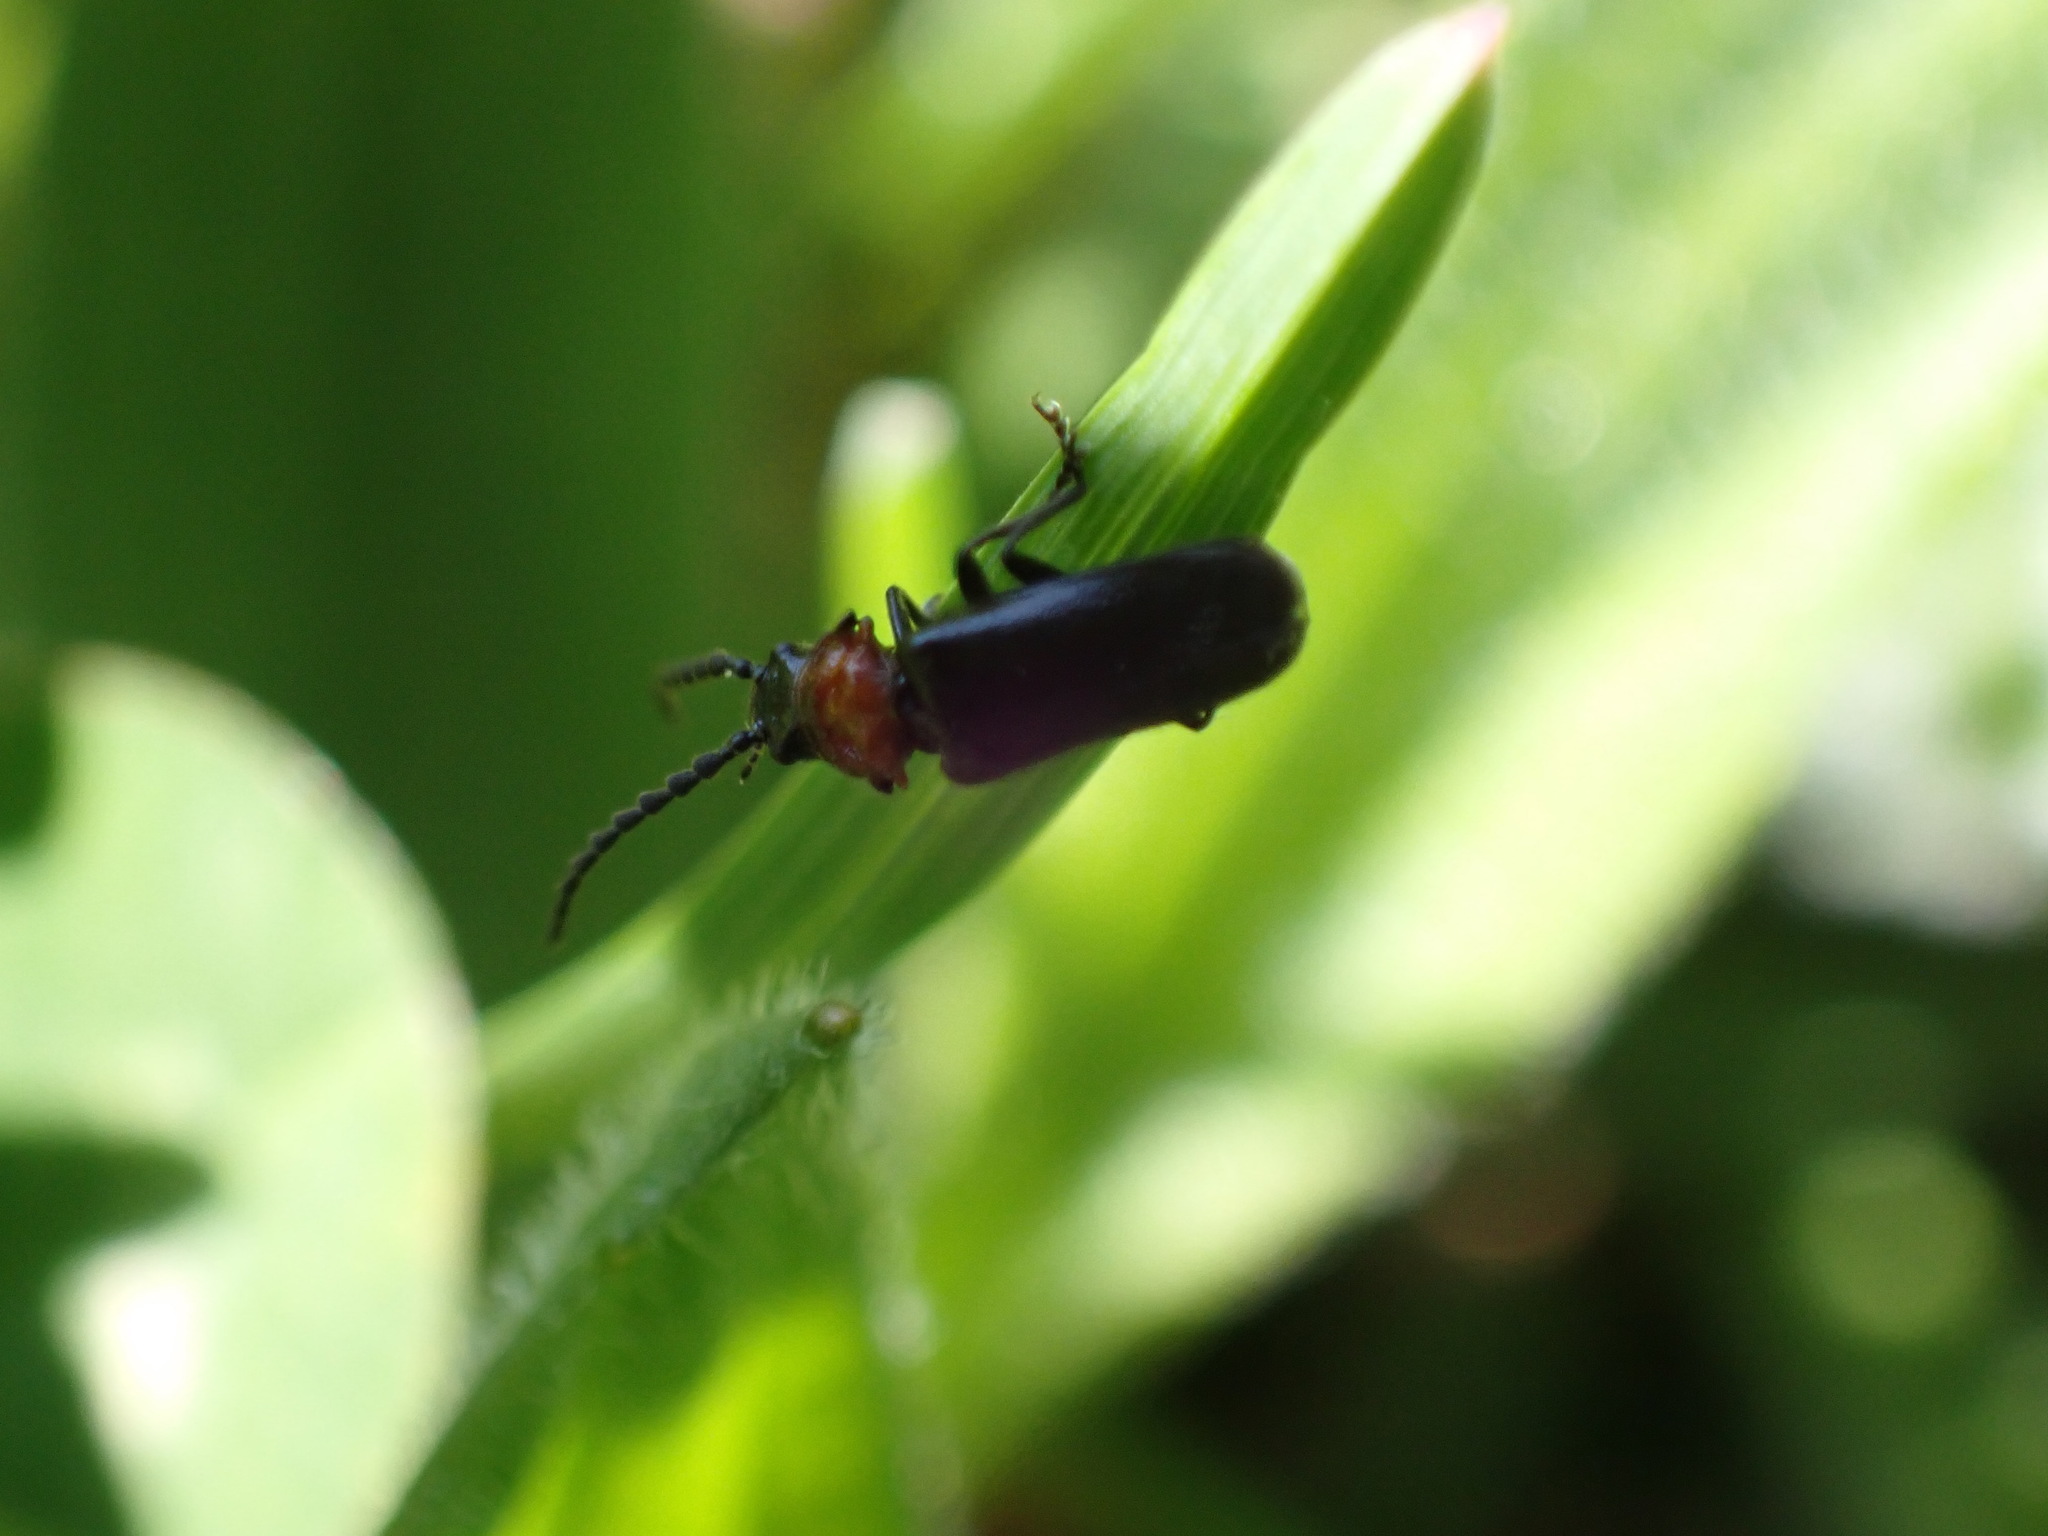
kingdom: Animalia
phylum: Arthropoda
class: Insecta
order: Coleoptera
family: Cantharidae
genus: Ditemnus
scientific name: Ditemnus bidentatus
